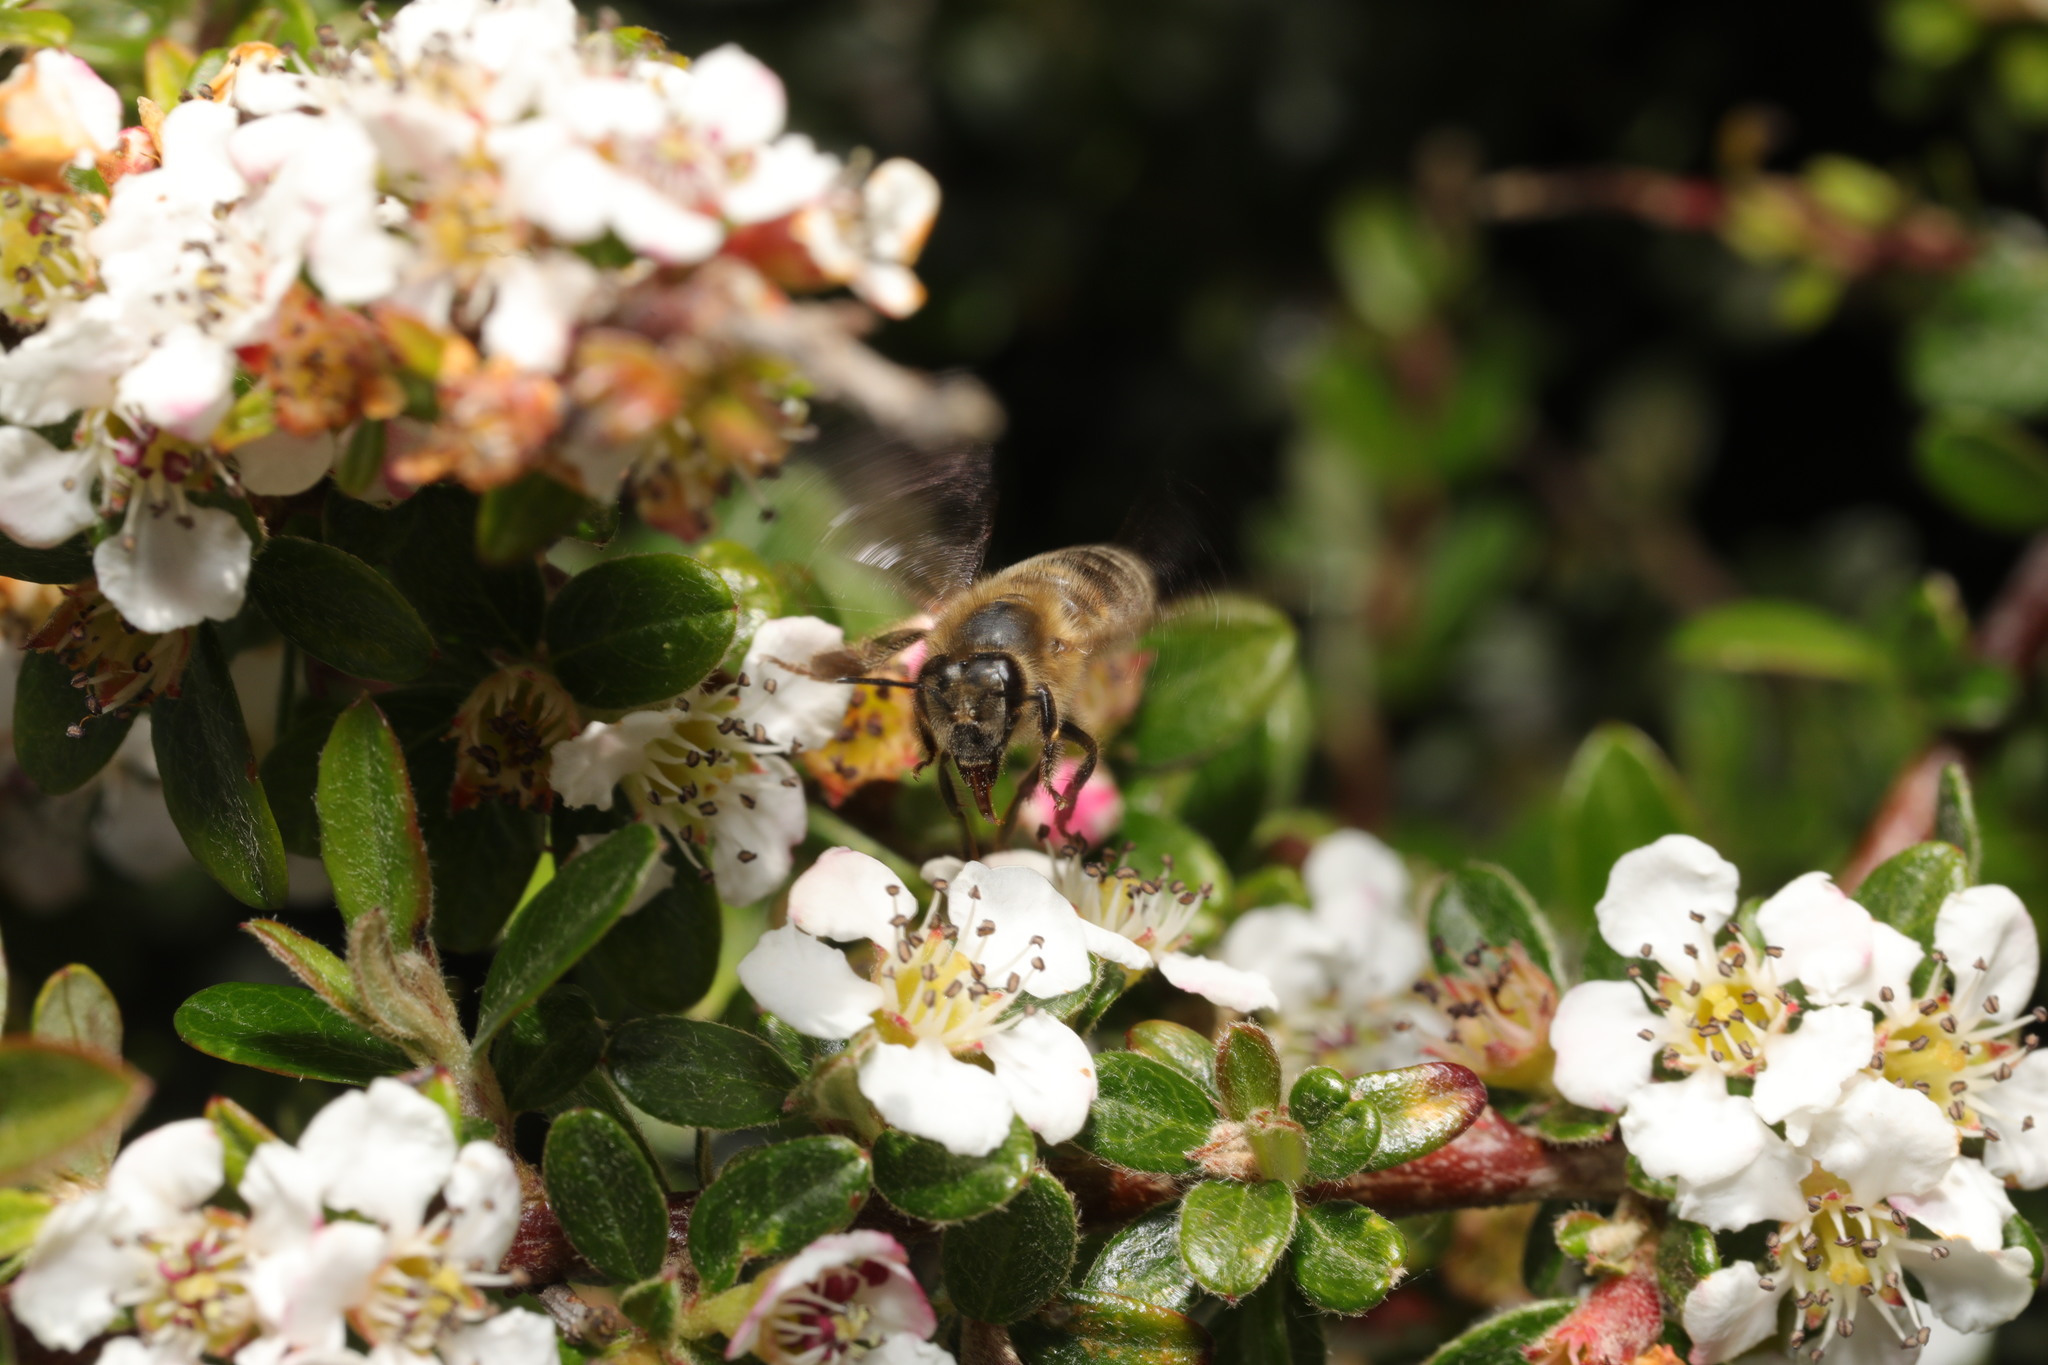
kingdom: Animalia
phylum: Arthropoda
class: Insecta
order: Hymenoptera
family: Apidae
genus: Apis
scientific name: Apis mellifera
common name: Honey bee
